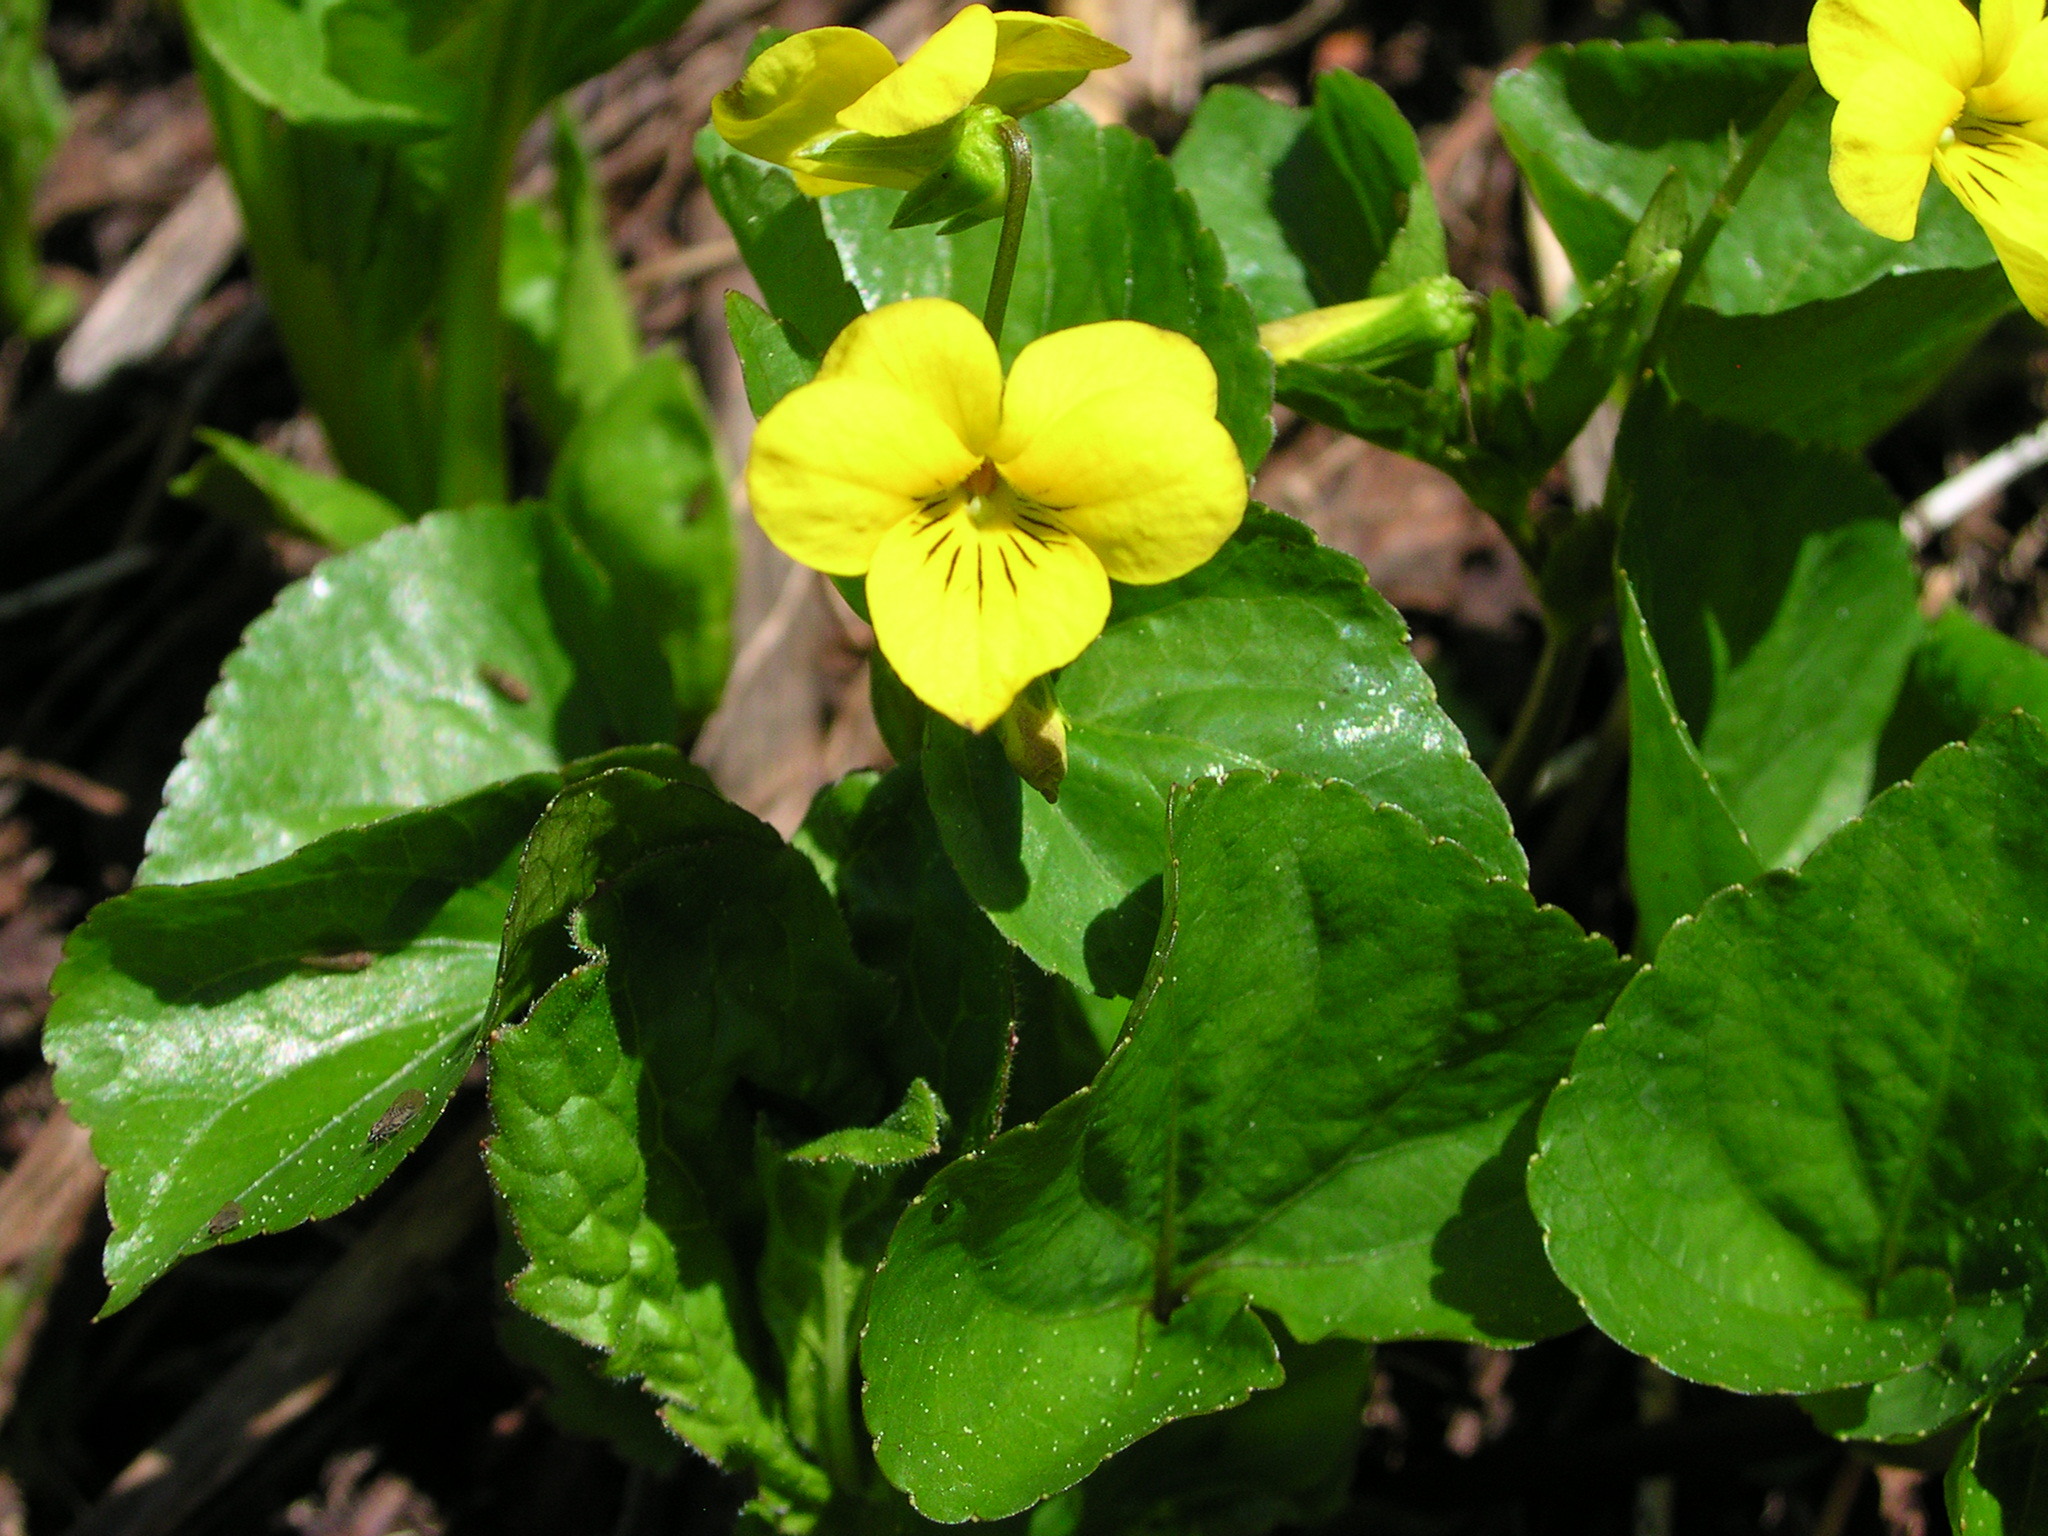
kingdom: Plantae
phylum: Tracheophyta
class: Magnoliopsida
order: Malpighiales
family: Violaceae
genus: Viola
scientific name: Viola glabella
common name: Stream violet
